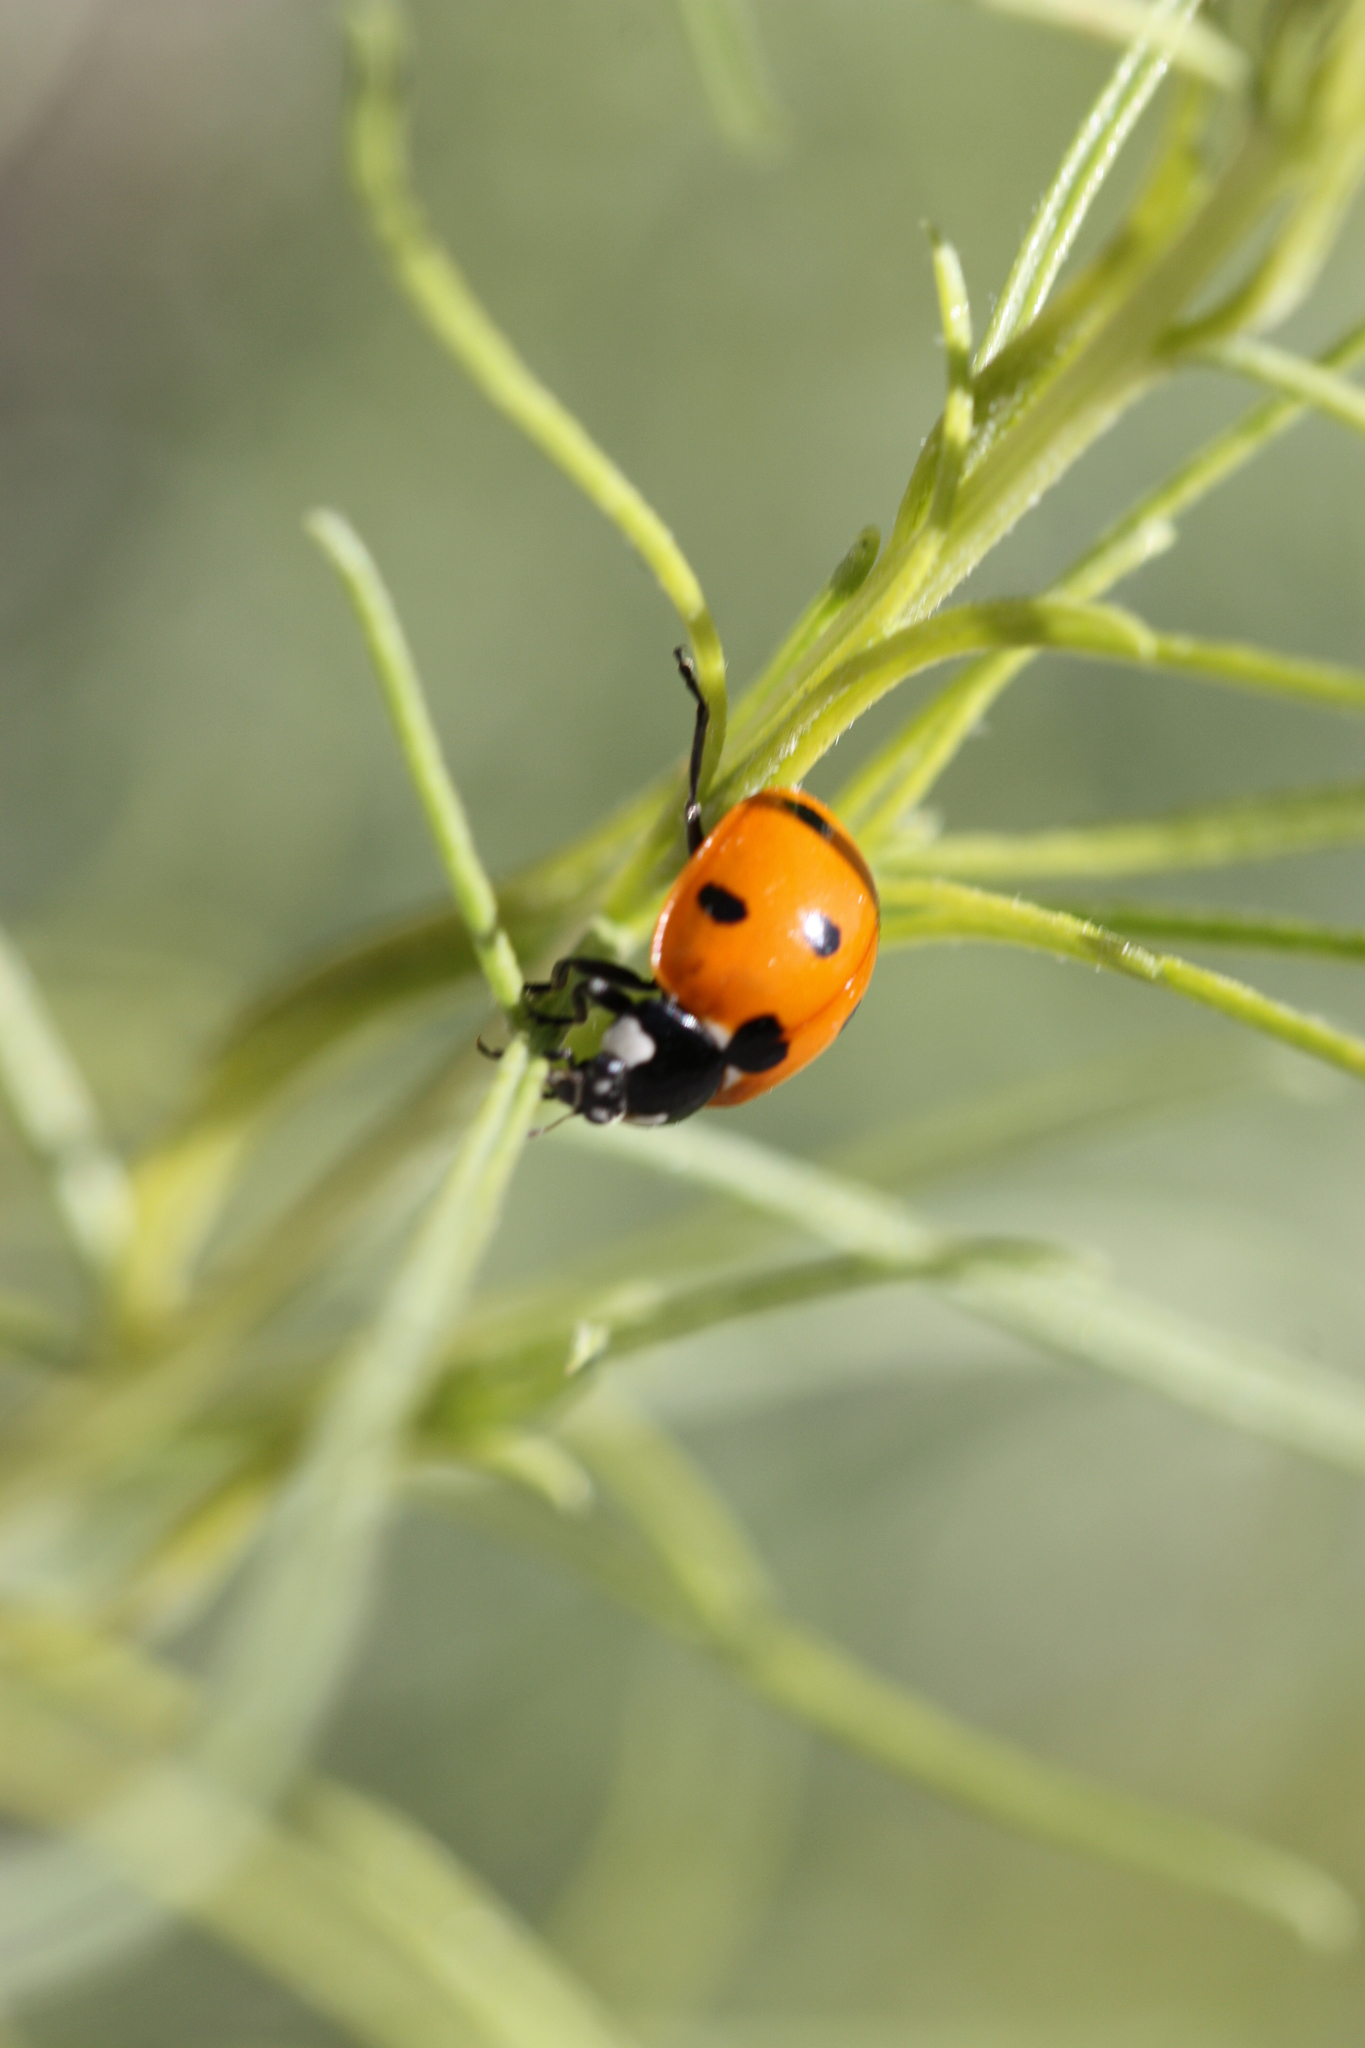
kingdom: Animalia
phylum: Arthropoda
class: Insecta
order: Coleoptera
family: Coccinellidae
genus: Coccinella
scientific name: Coccinella septempunctata
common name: Sevenspotted lady beetle
